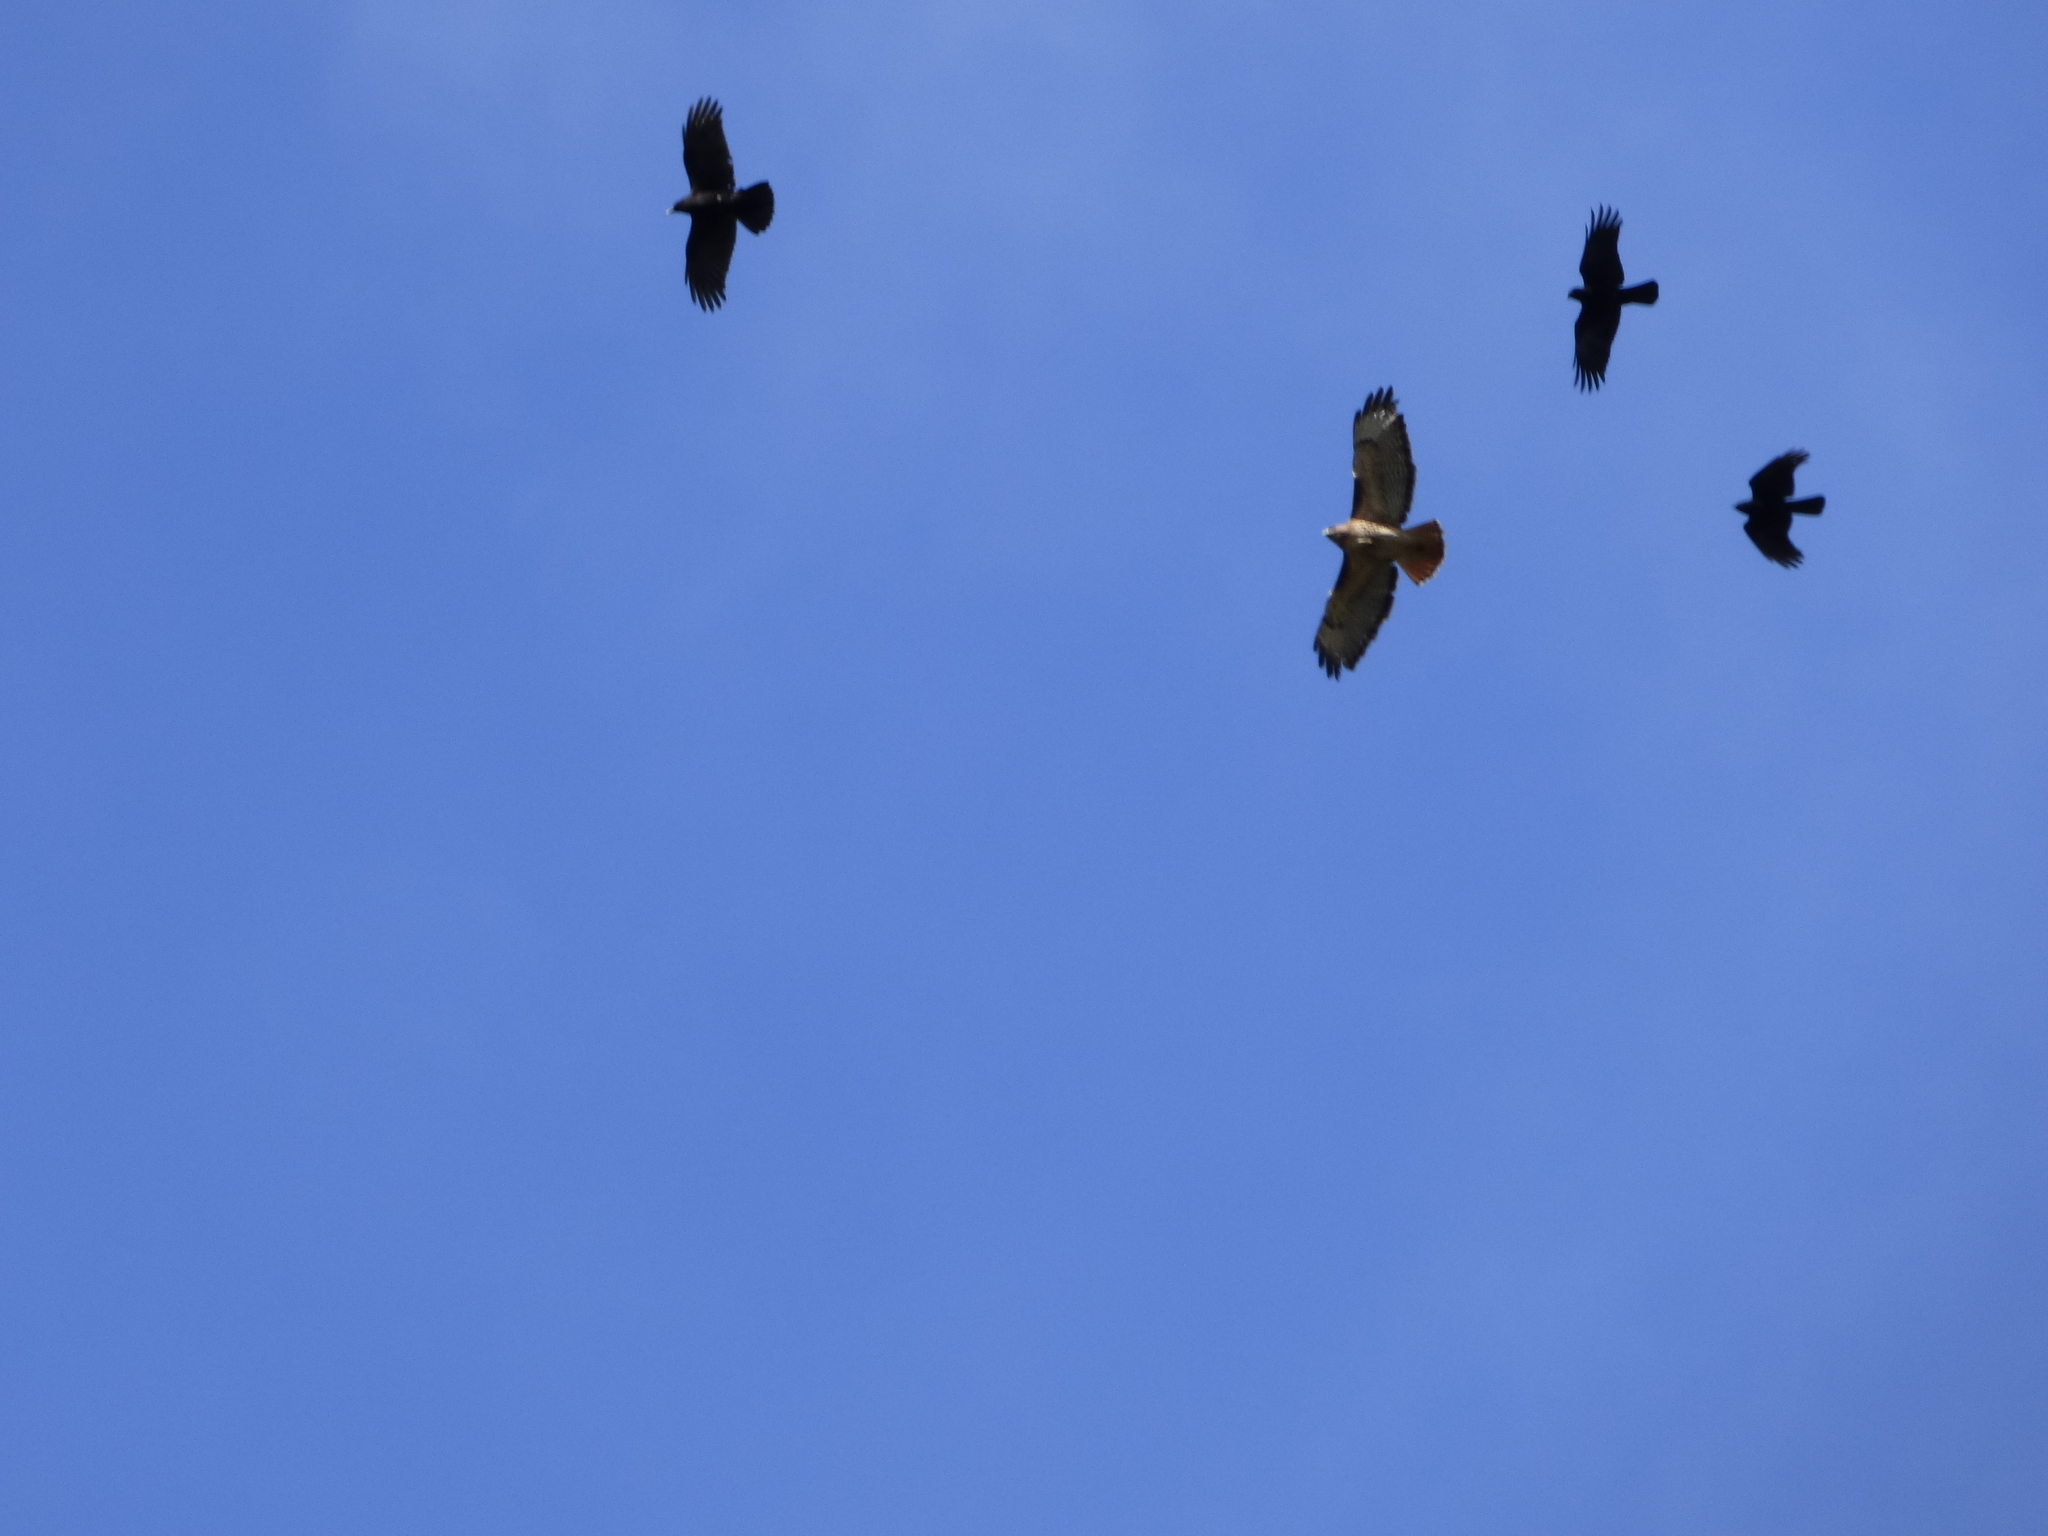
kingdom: Animalia
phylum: Chordata
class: Aves
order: Accipitriformes
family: Accipitridae
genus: Buteo
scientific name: Buteo jamaicensis
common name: Red-tailed hawk
